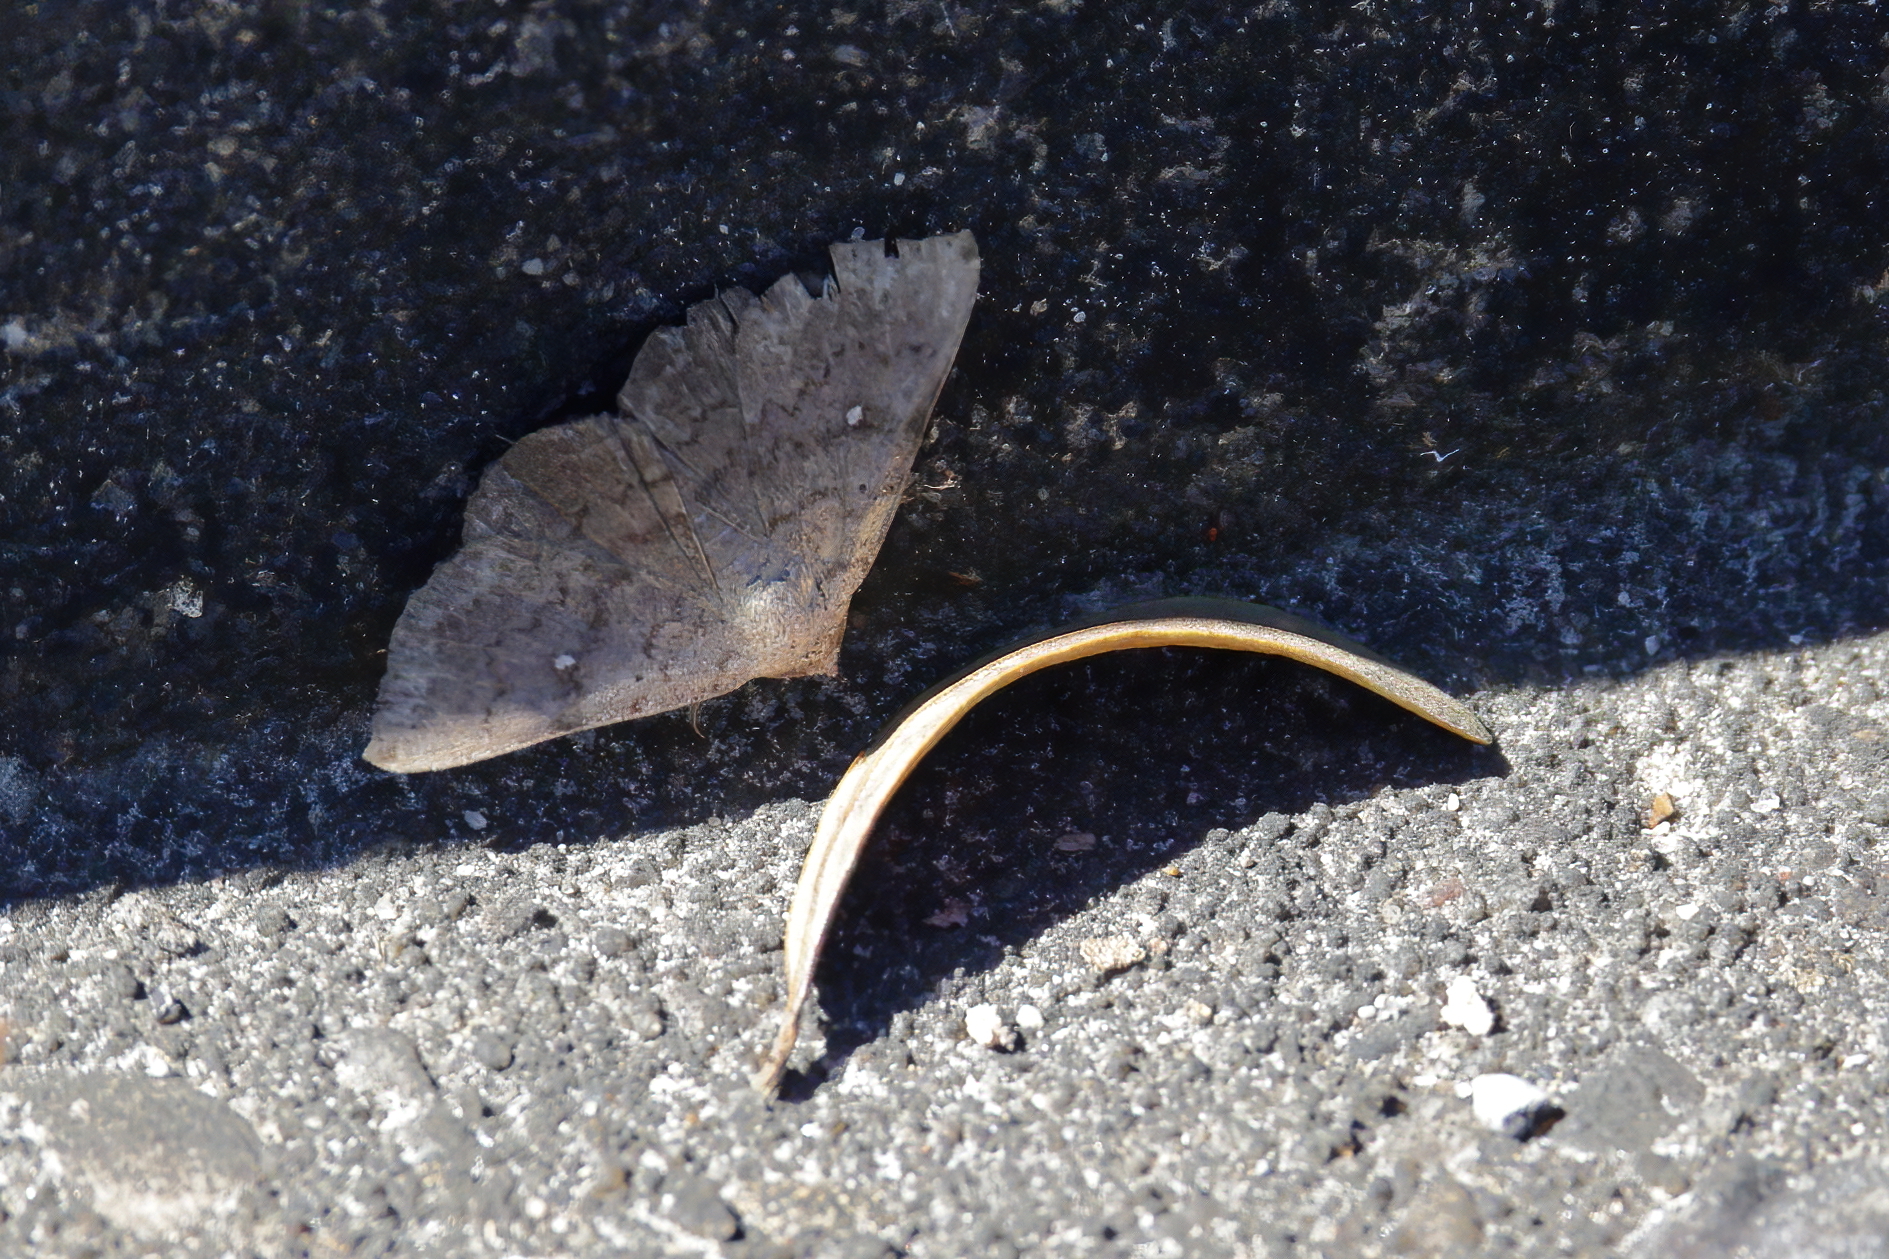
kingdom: Animalia
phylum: Arthropoda
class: Insecta
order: Lepidoptera
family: Erebidae
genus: Lesmone
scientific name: Lesmone hinna
